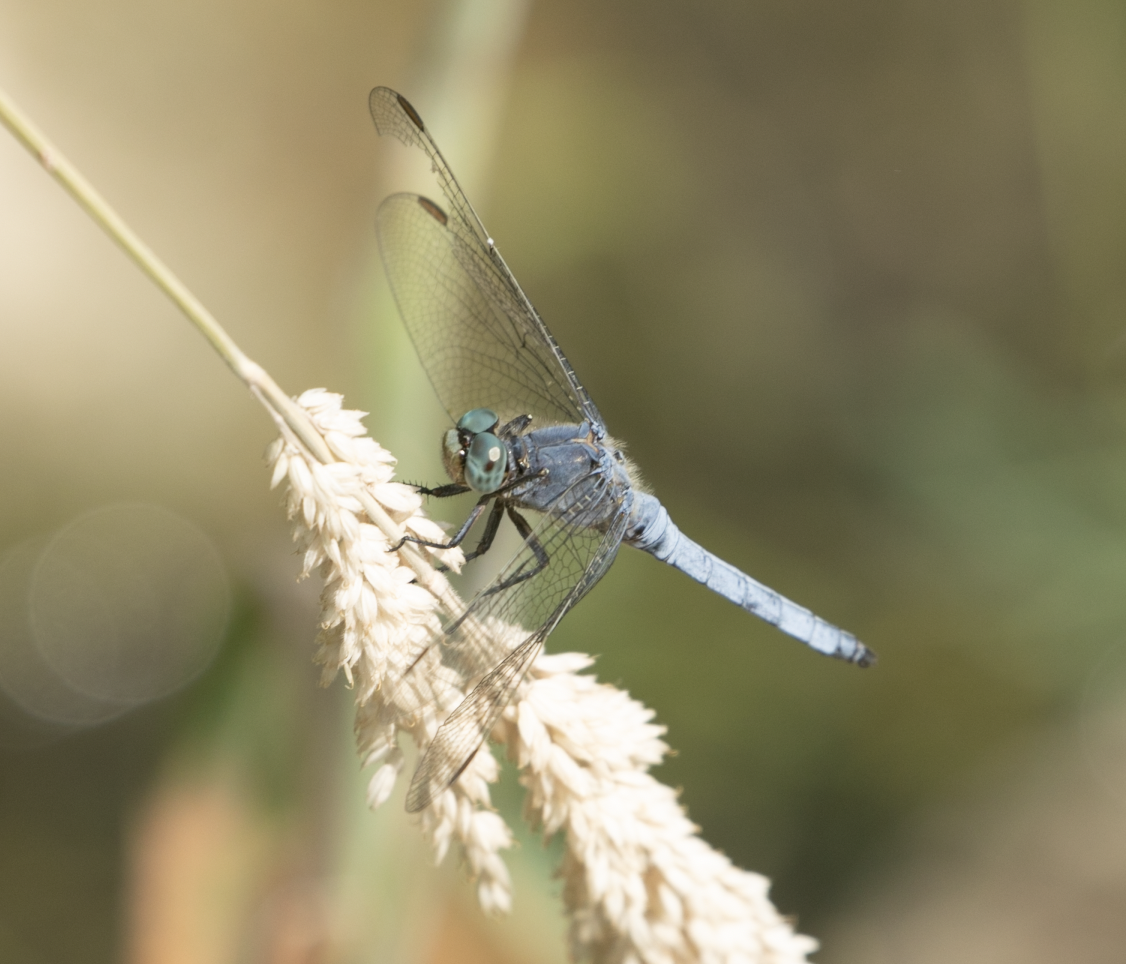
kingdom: Animalia
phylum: Arthropoda
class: Insecta
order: Odonata
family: Libellulidae
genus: Orthetrum
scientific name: Orthetrum coerulescens
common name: Keeled skimmer
